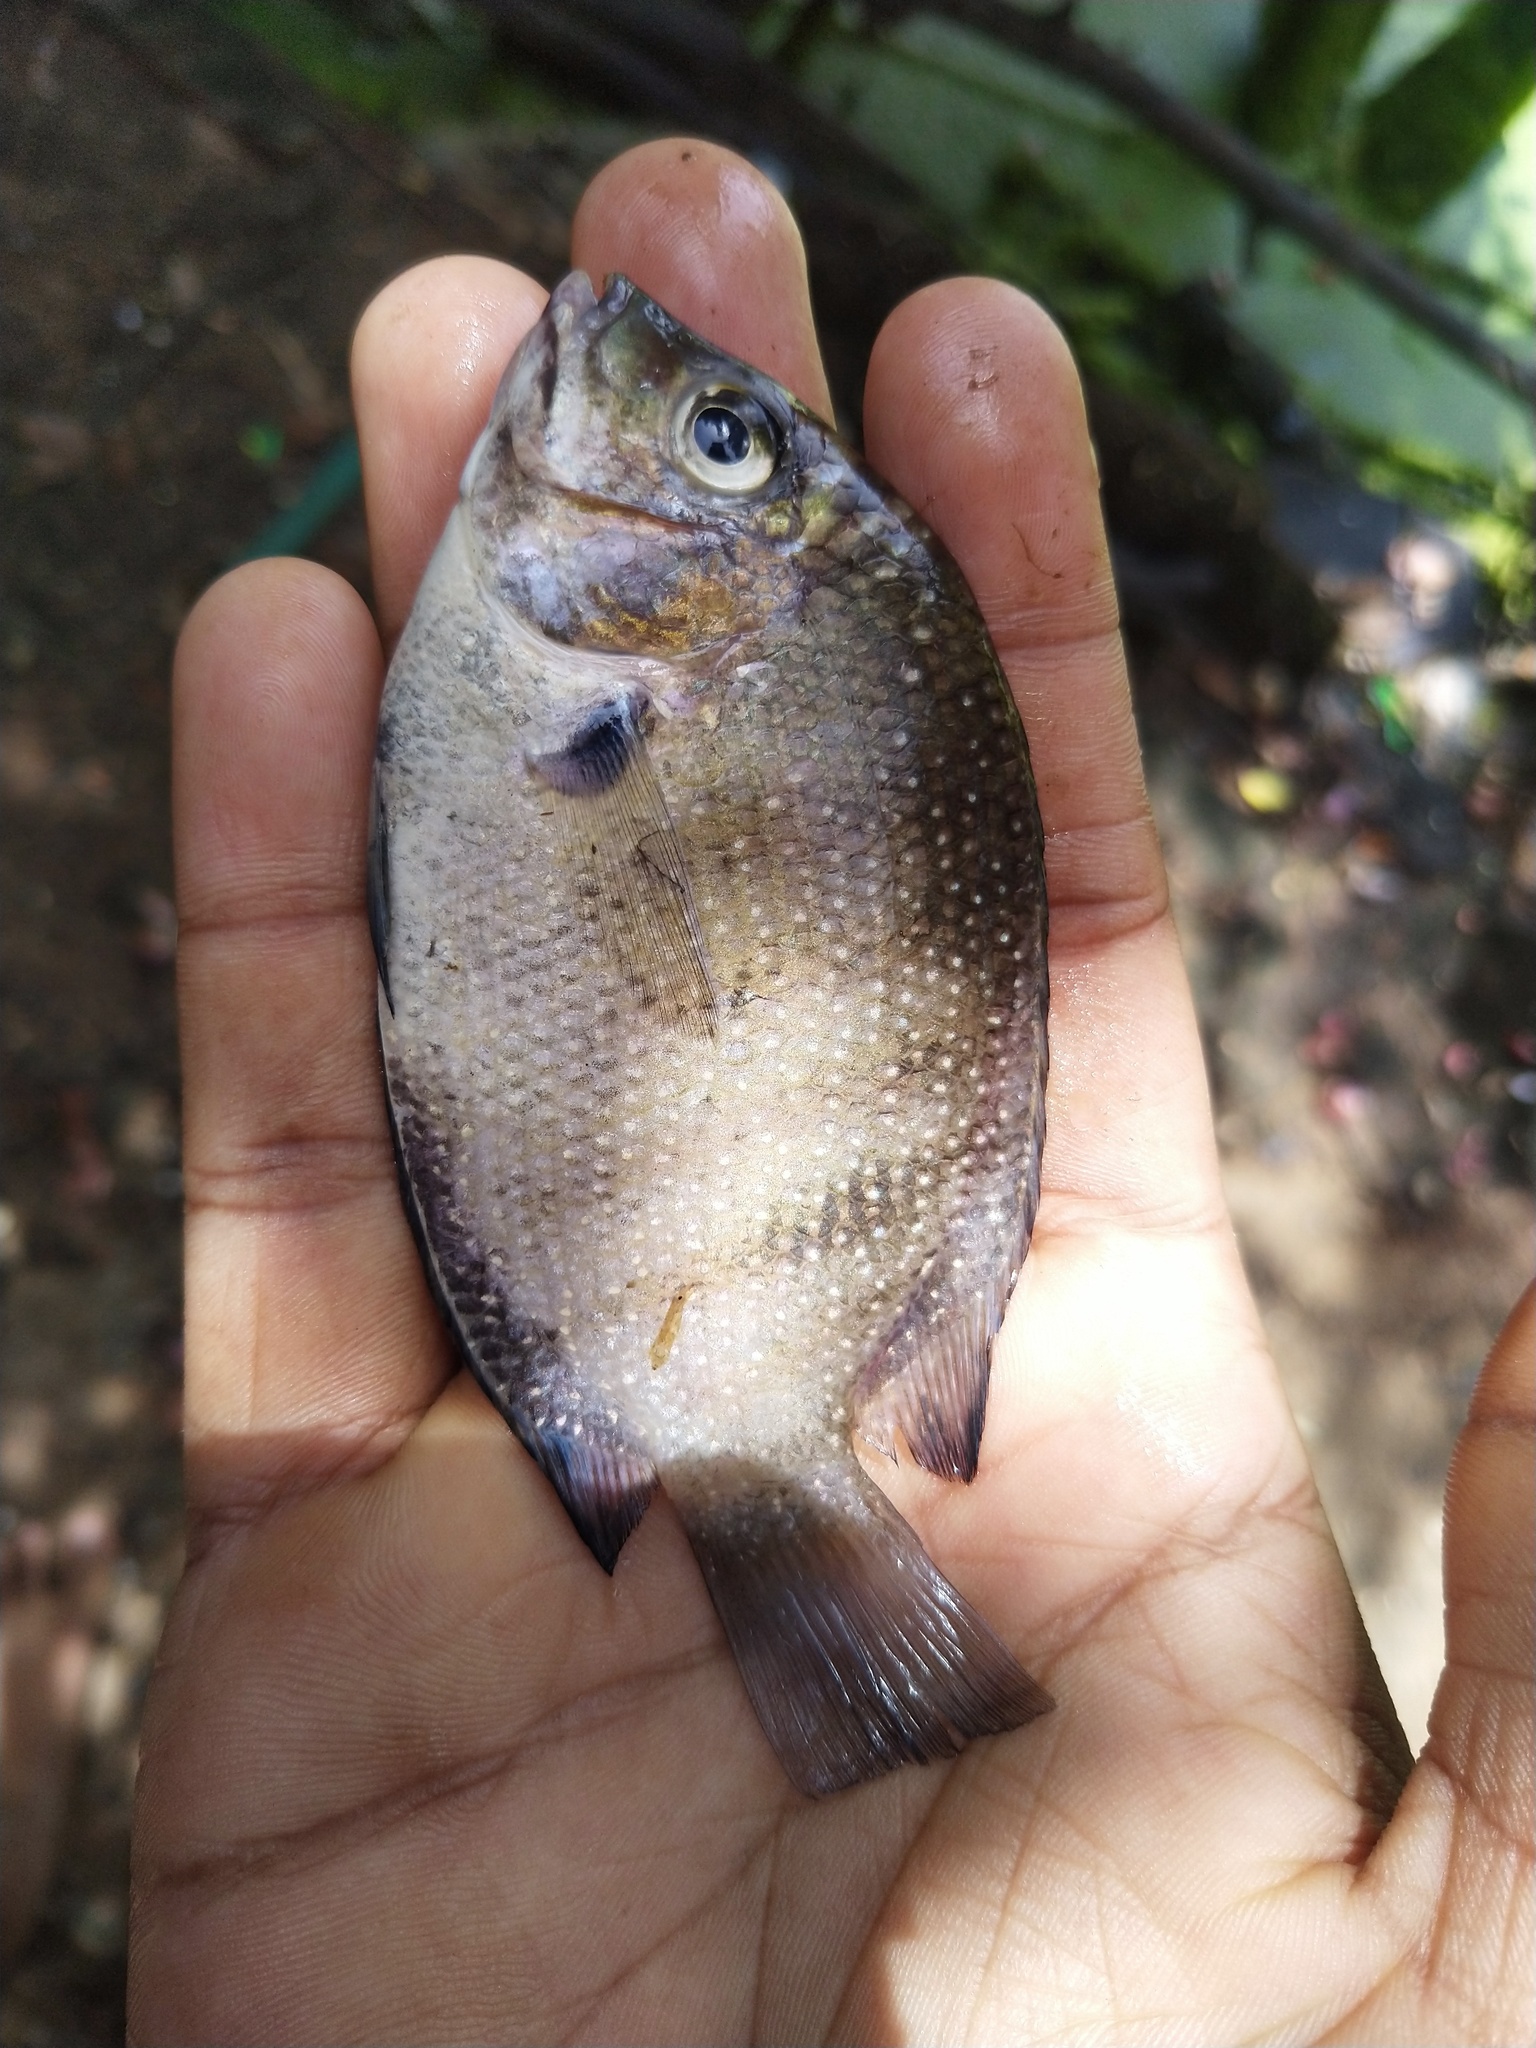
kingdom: Animalia
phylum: Chordata
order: Perciformes
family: Cichlidae
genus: Etroplus
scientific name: Etroplus suratensis
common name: Green chromide
